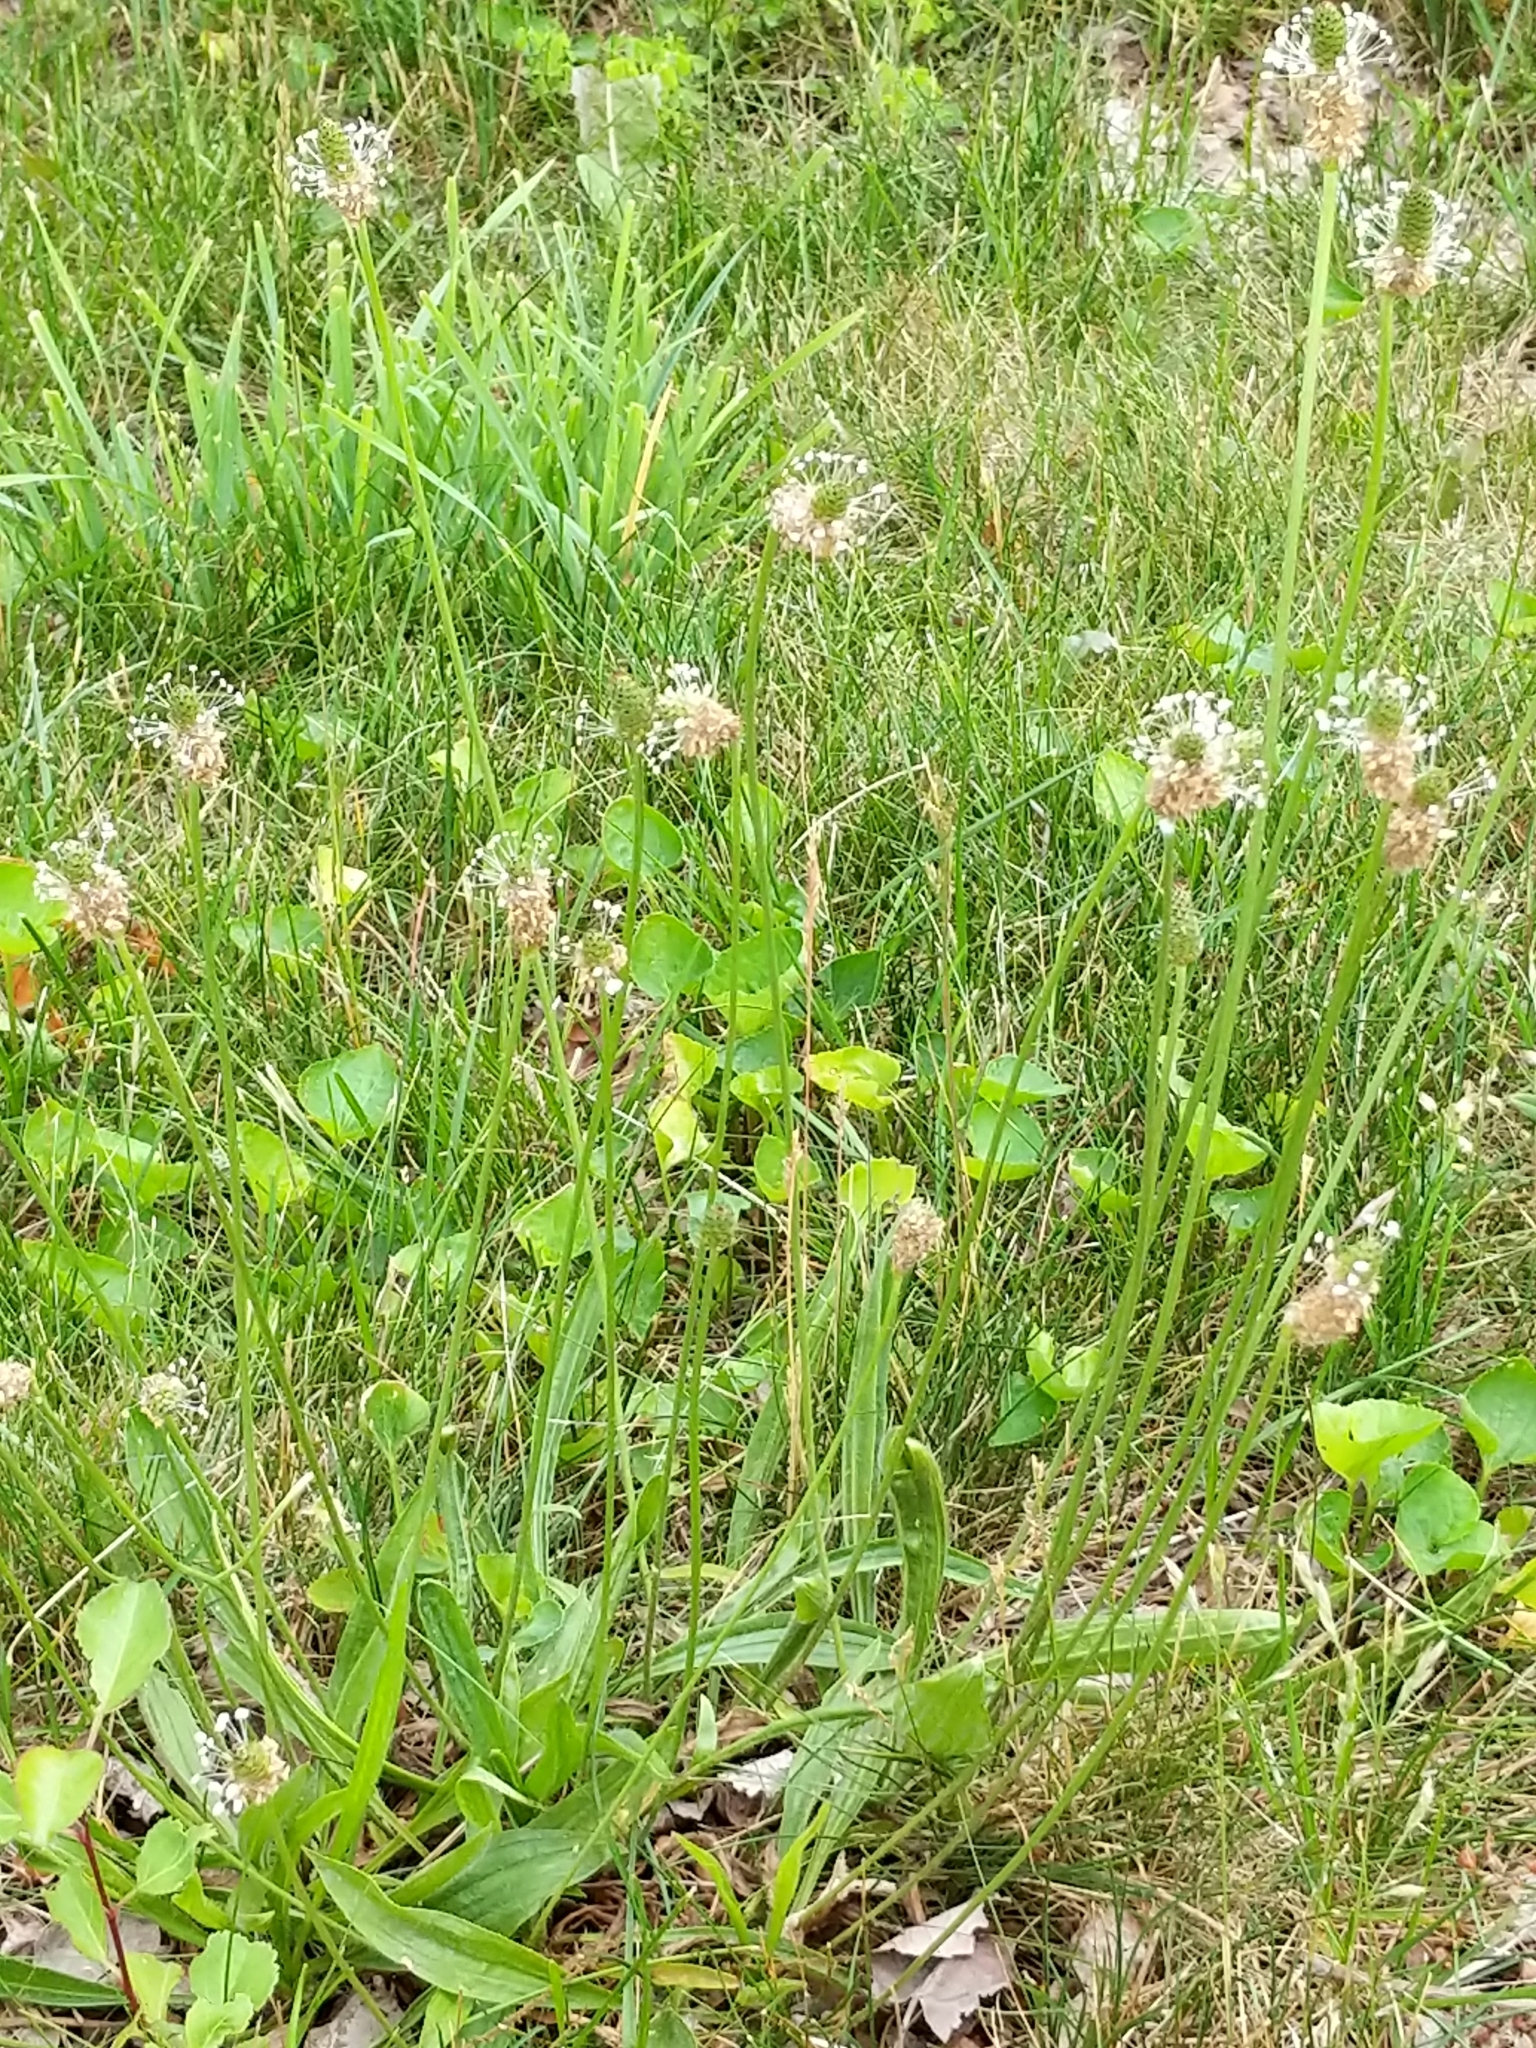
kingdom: Plantae
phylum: Tracheophyta
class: Magnoliopsida
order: Lamiales
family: Plantaginaceae
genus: Plantago
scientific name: Plantago lanceolata
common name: Ribwort plantain
